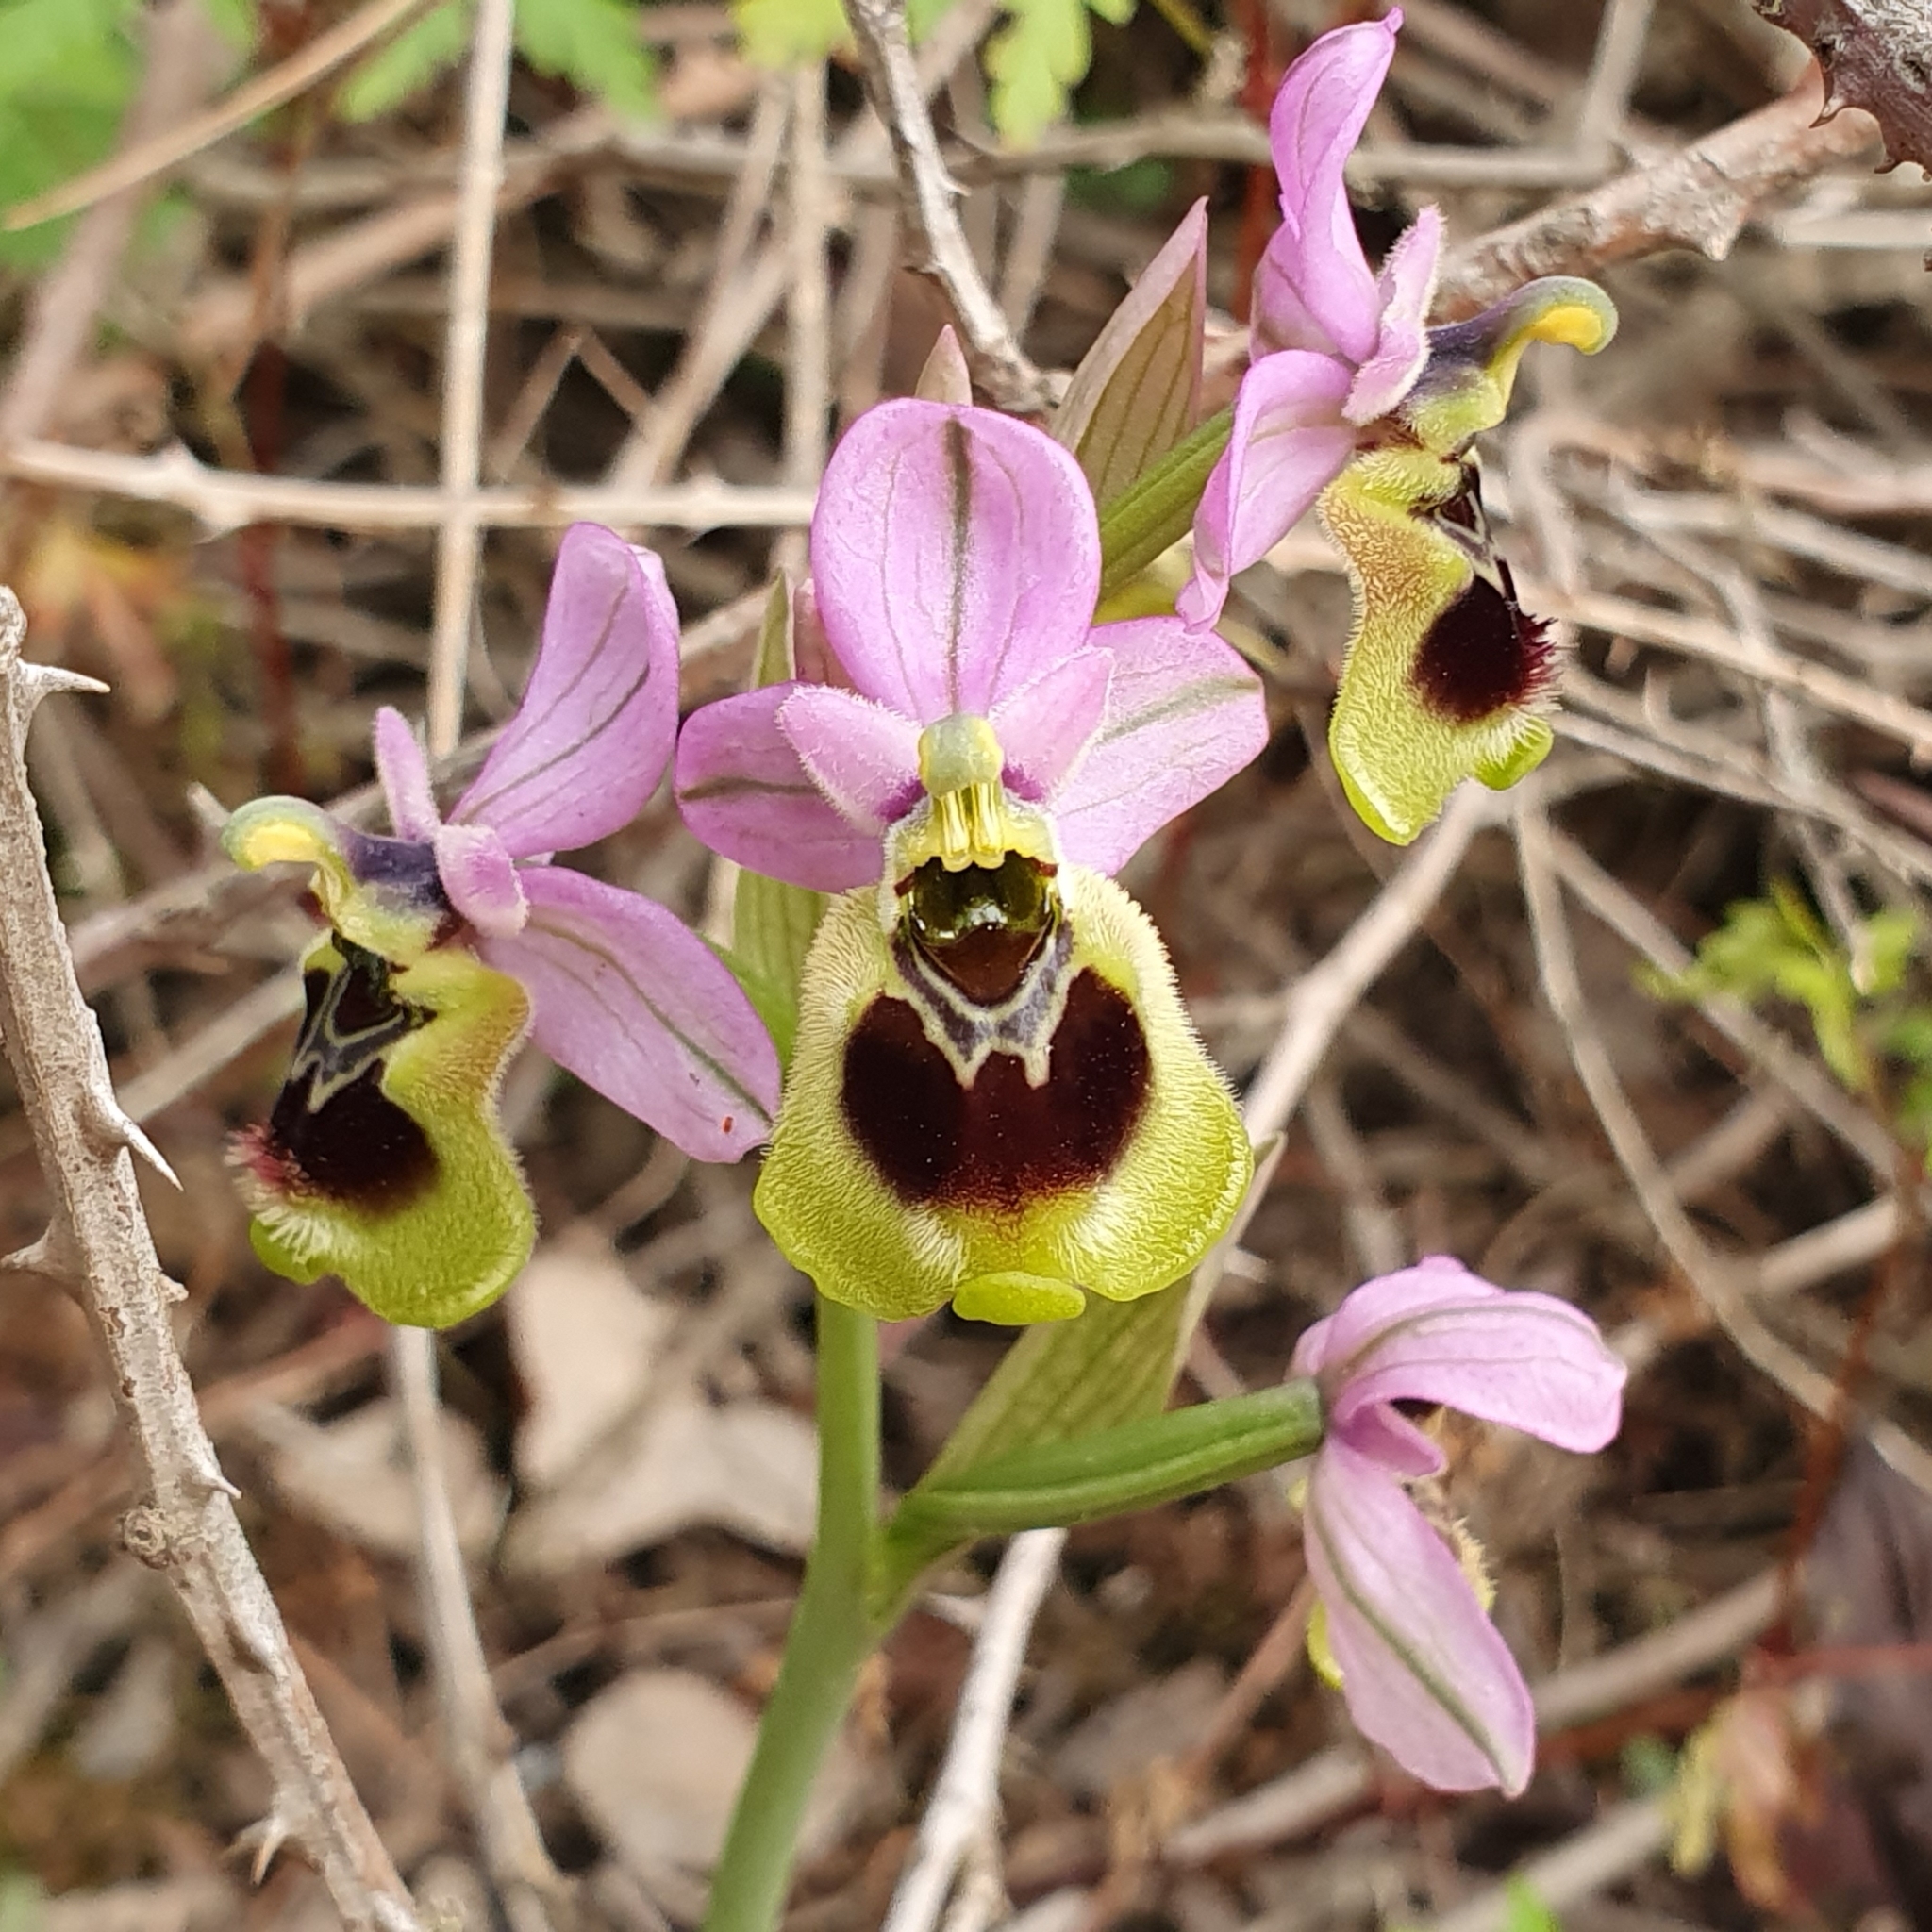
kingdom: Plantae
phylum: Tracheophyta
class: Liliopsida
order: Asparagales
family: Orchidaceae
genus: Ophrys
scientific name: Ophrys tenthredinifera
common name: Sawfly orchid
